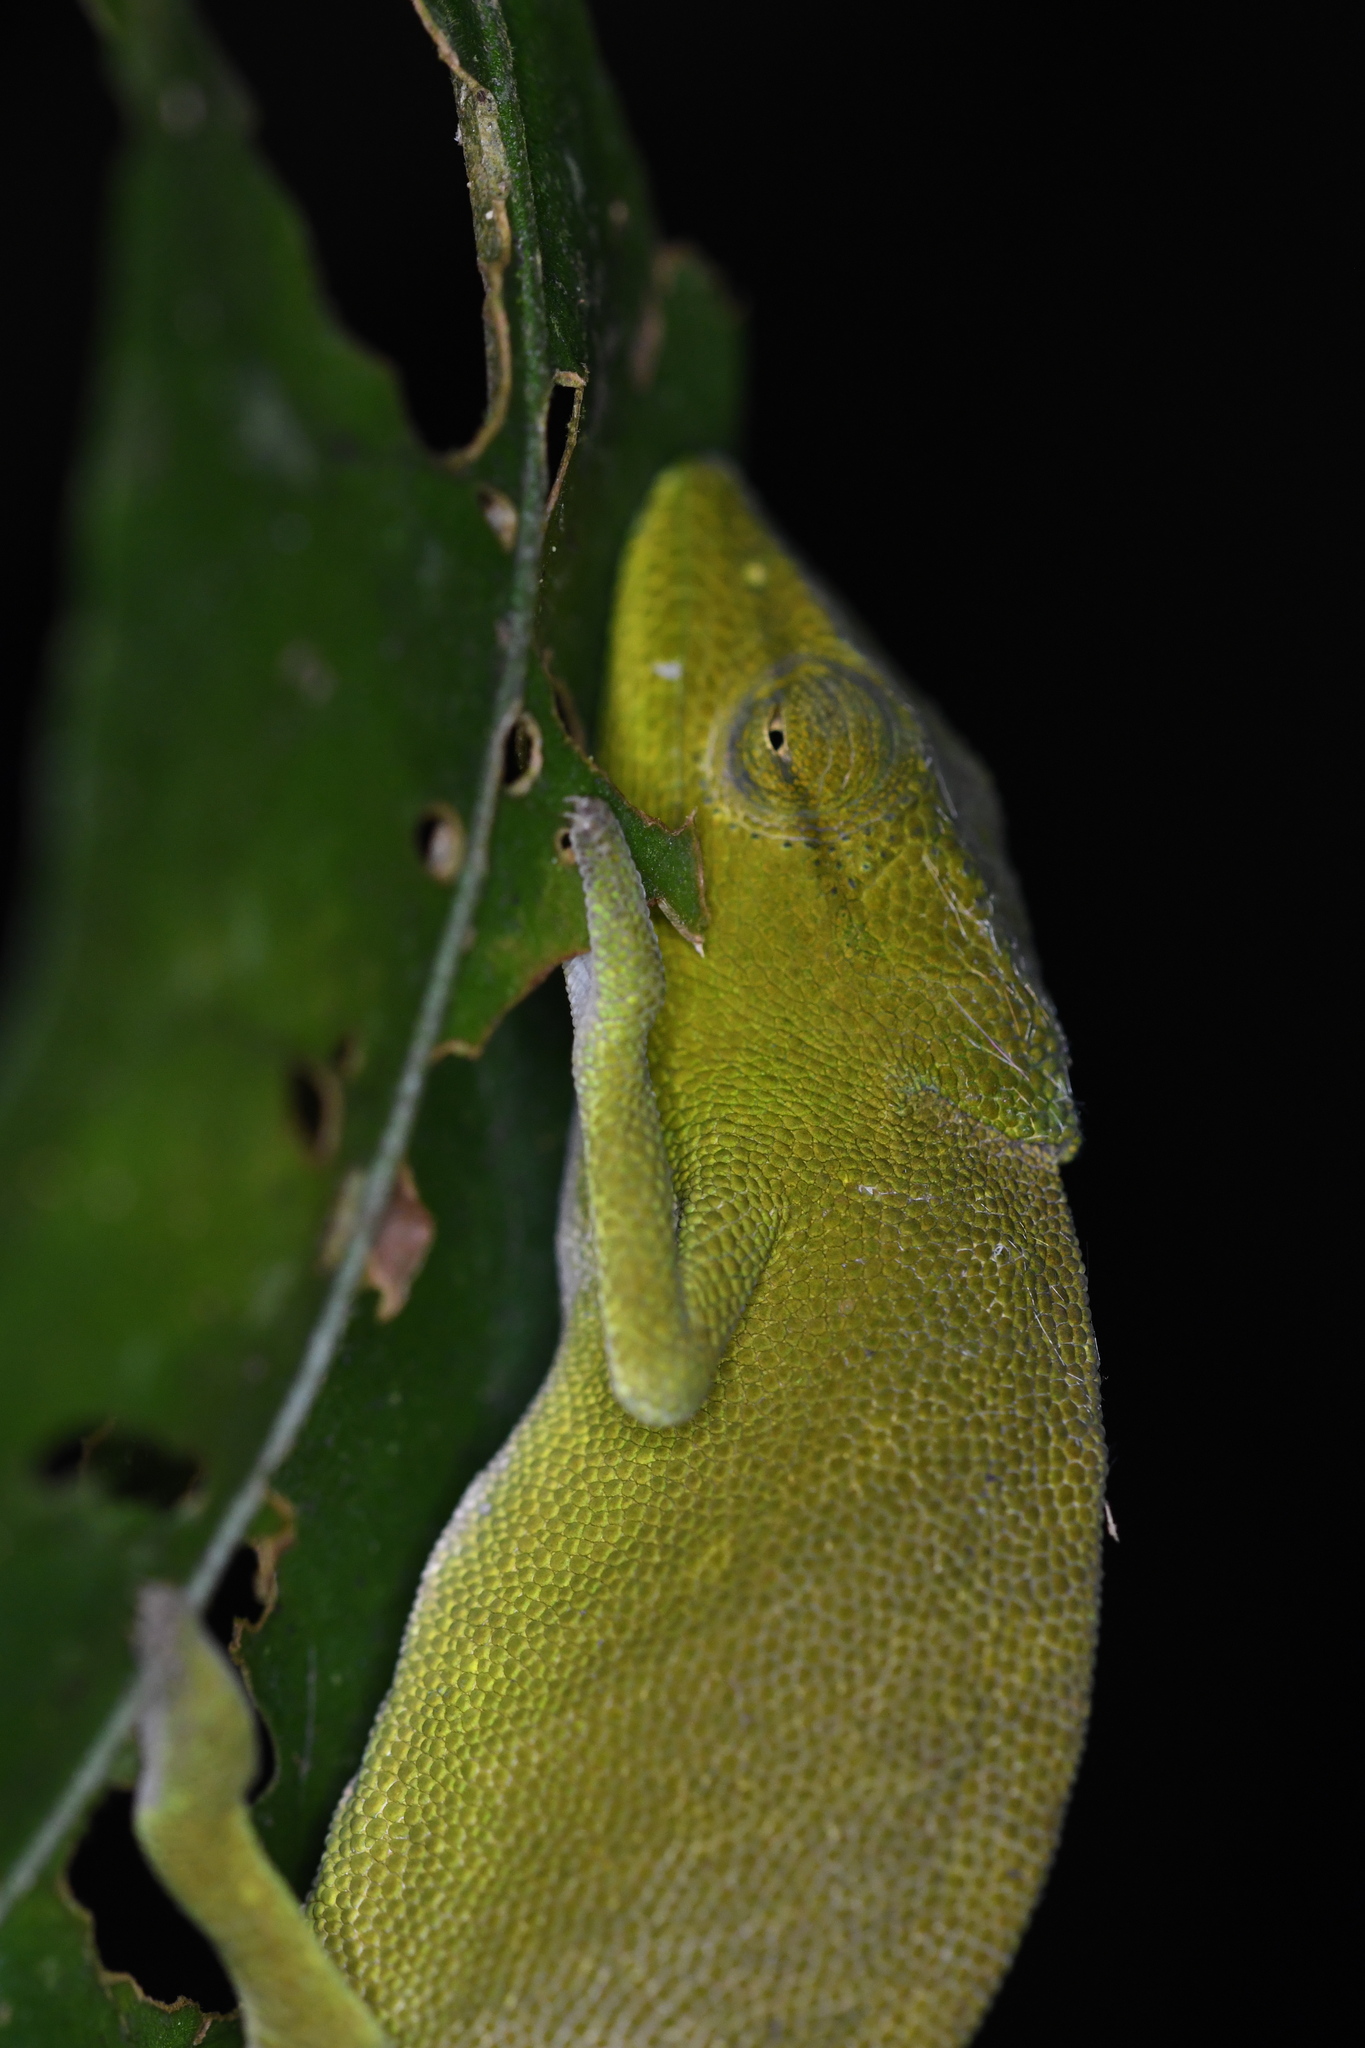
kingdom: Animalia
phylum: Chordata
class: Squamata
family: Chamaeleonidae
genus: Calumma
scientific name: Calumma glawi
